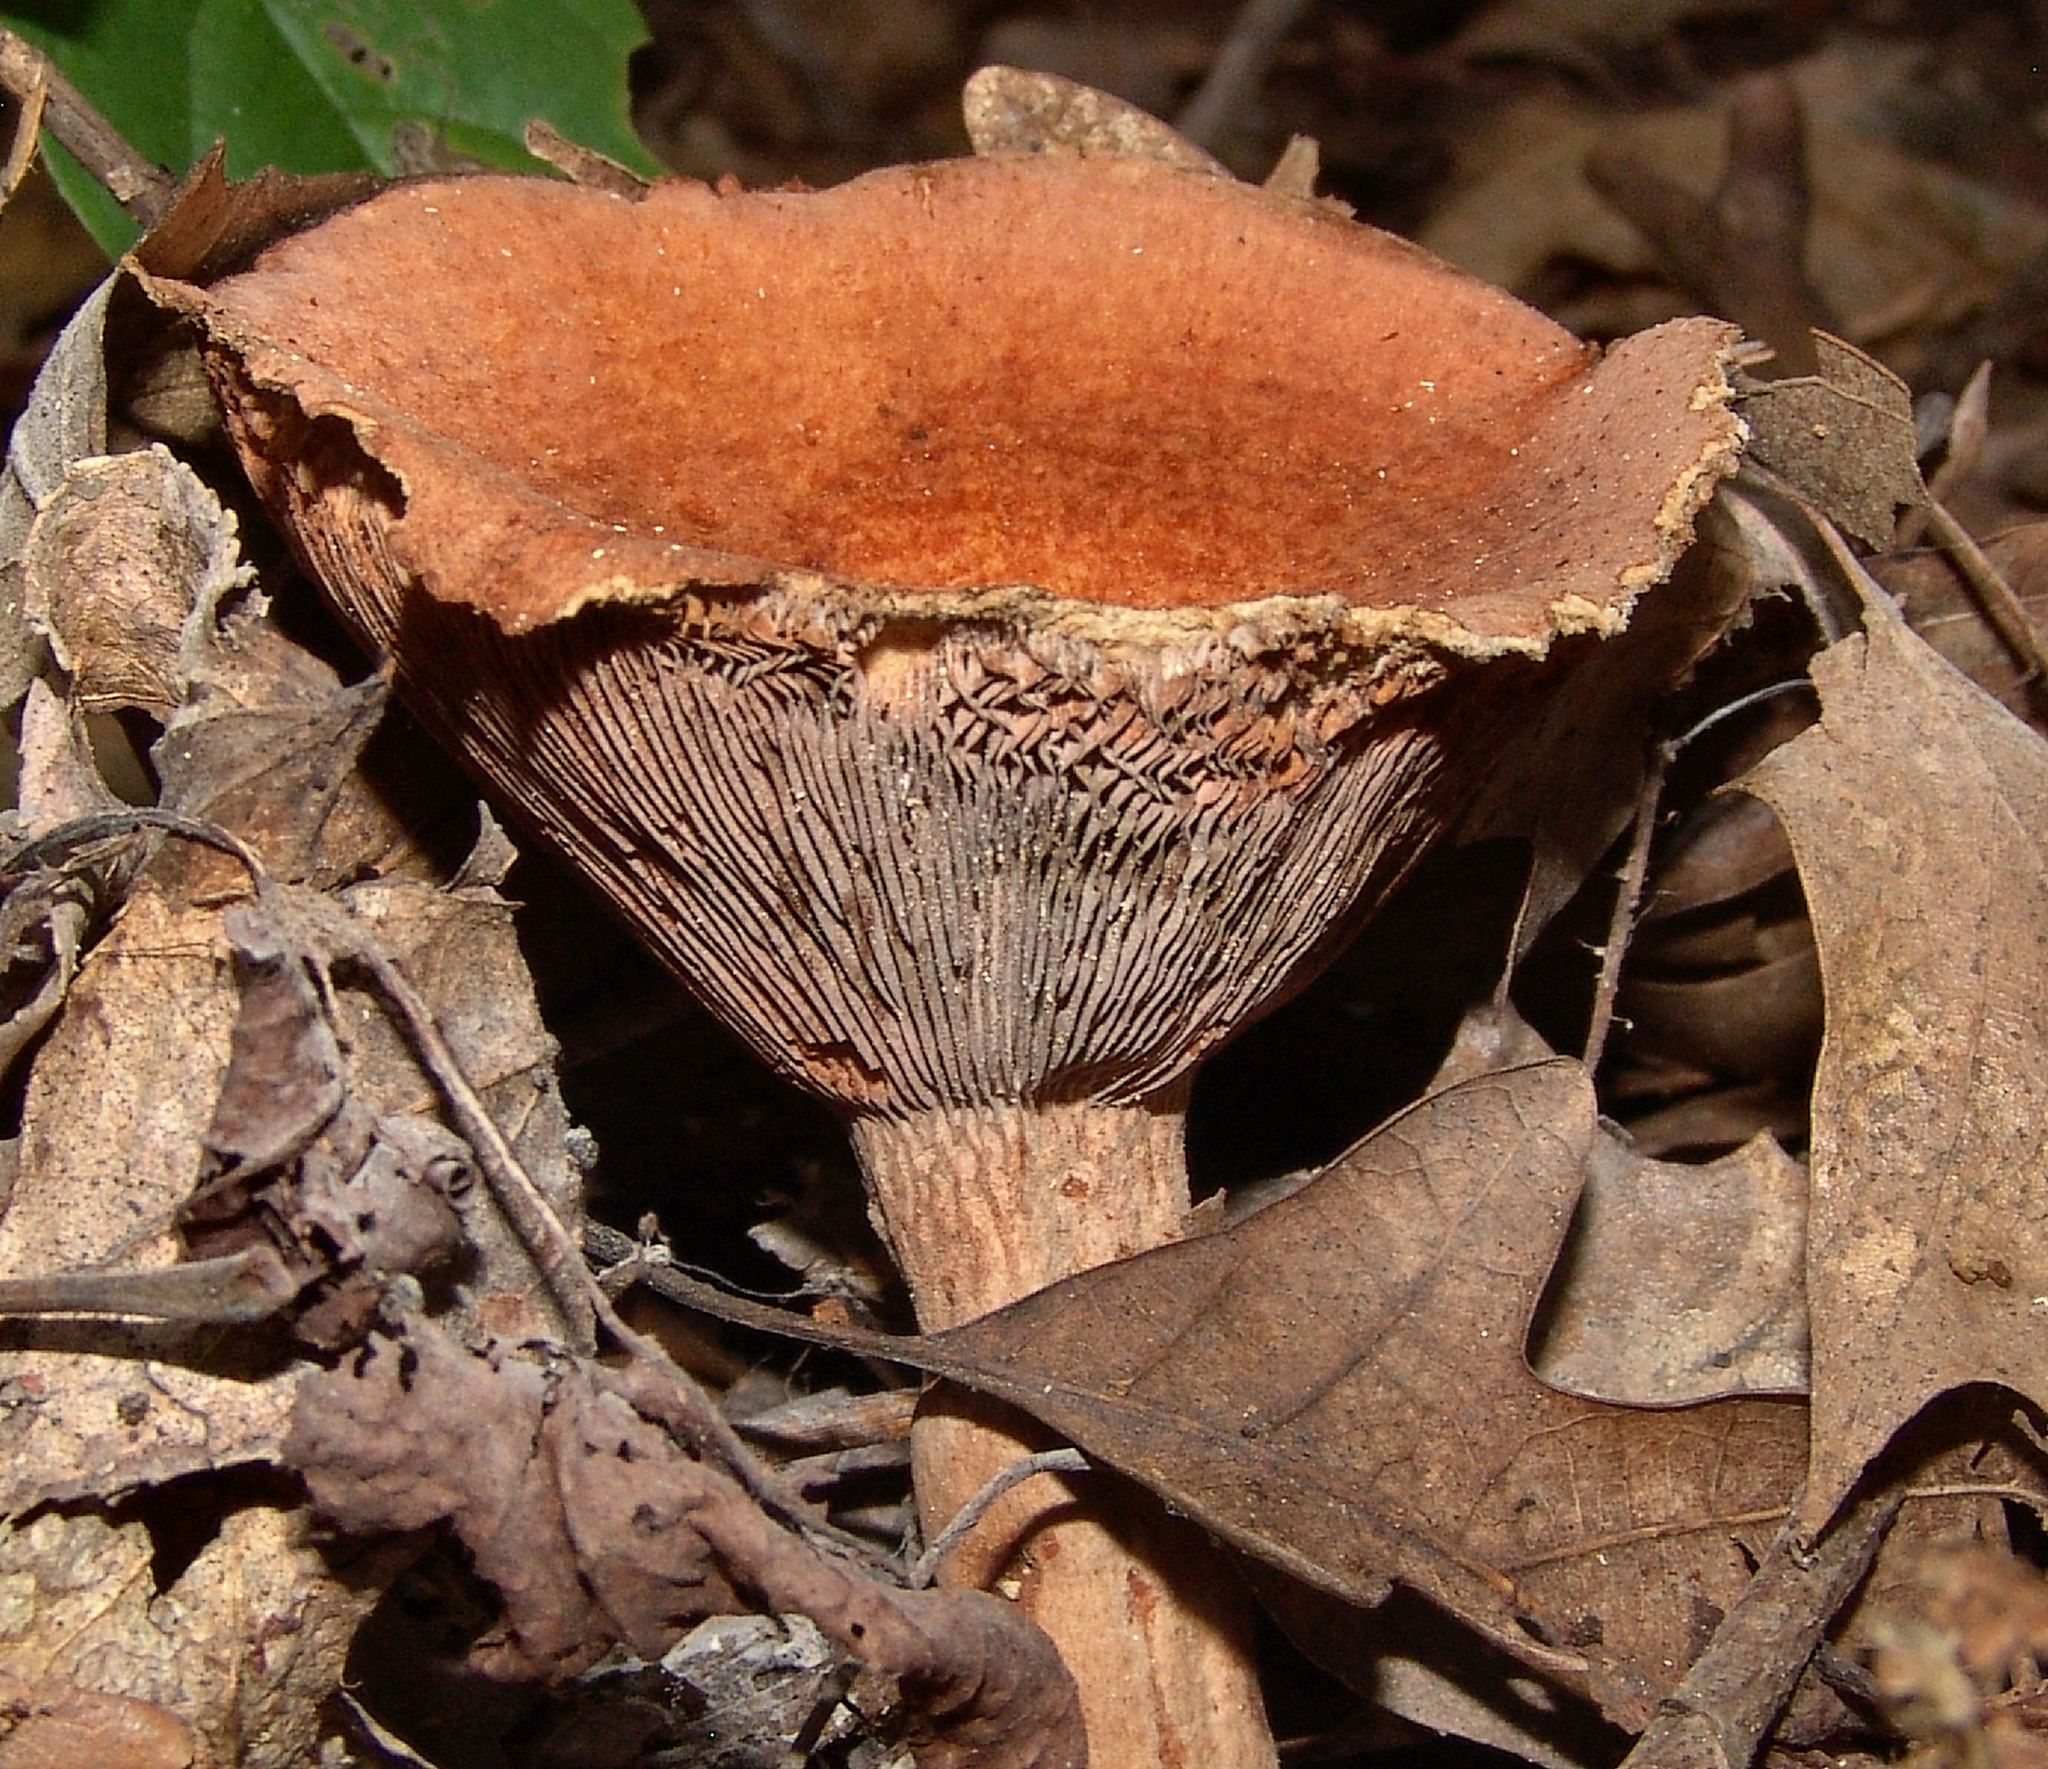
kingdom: Fungi
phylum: Basidiomycota
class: Agaricomycetes
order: Russulales
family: Russulaceae
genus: Lactarius
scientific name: Lactarius peckii
